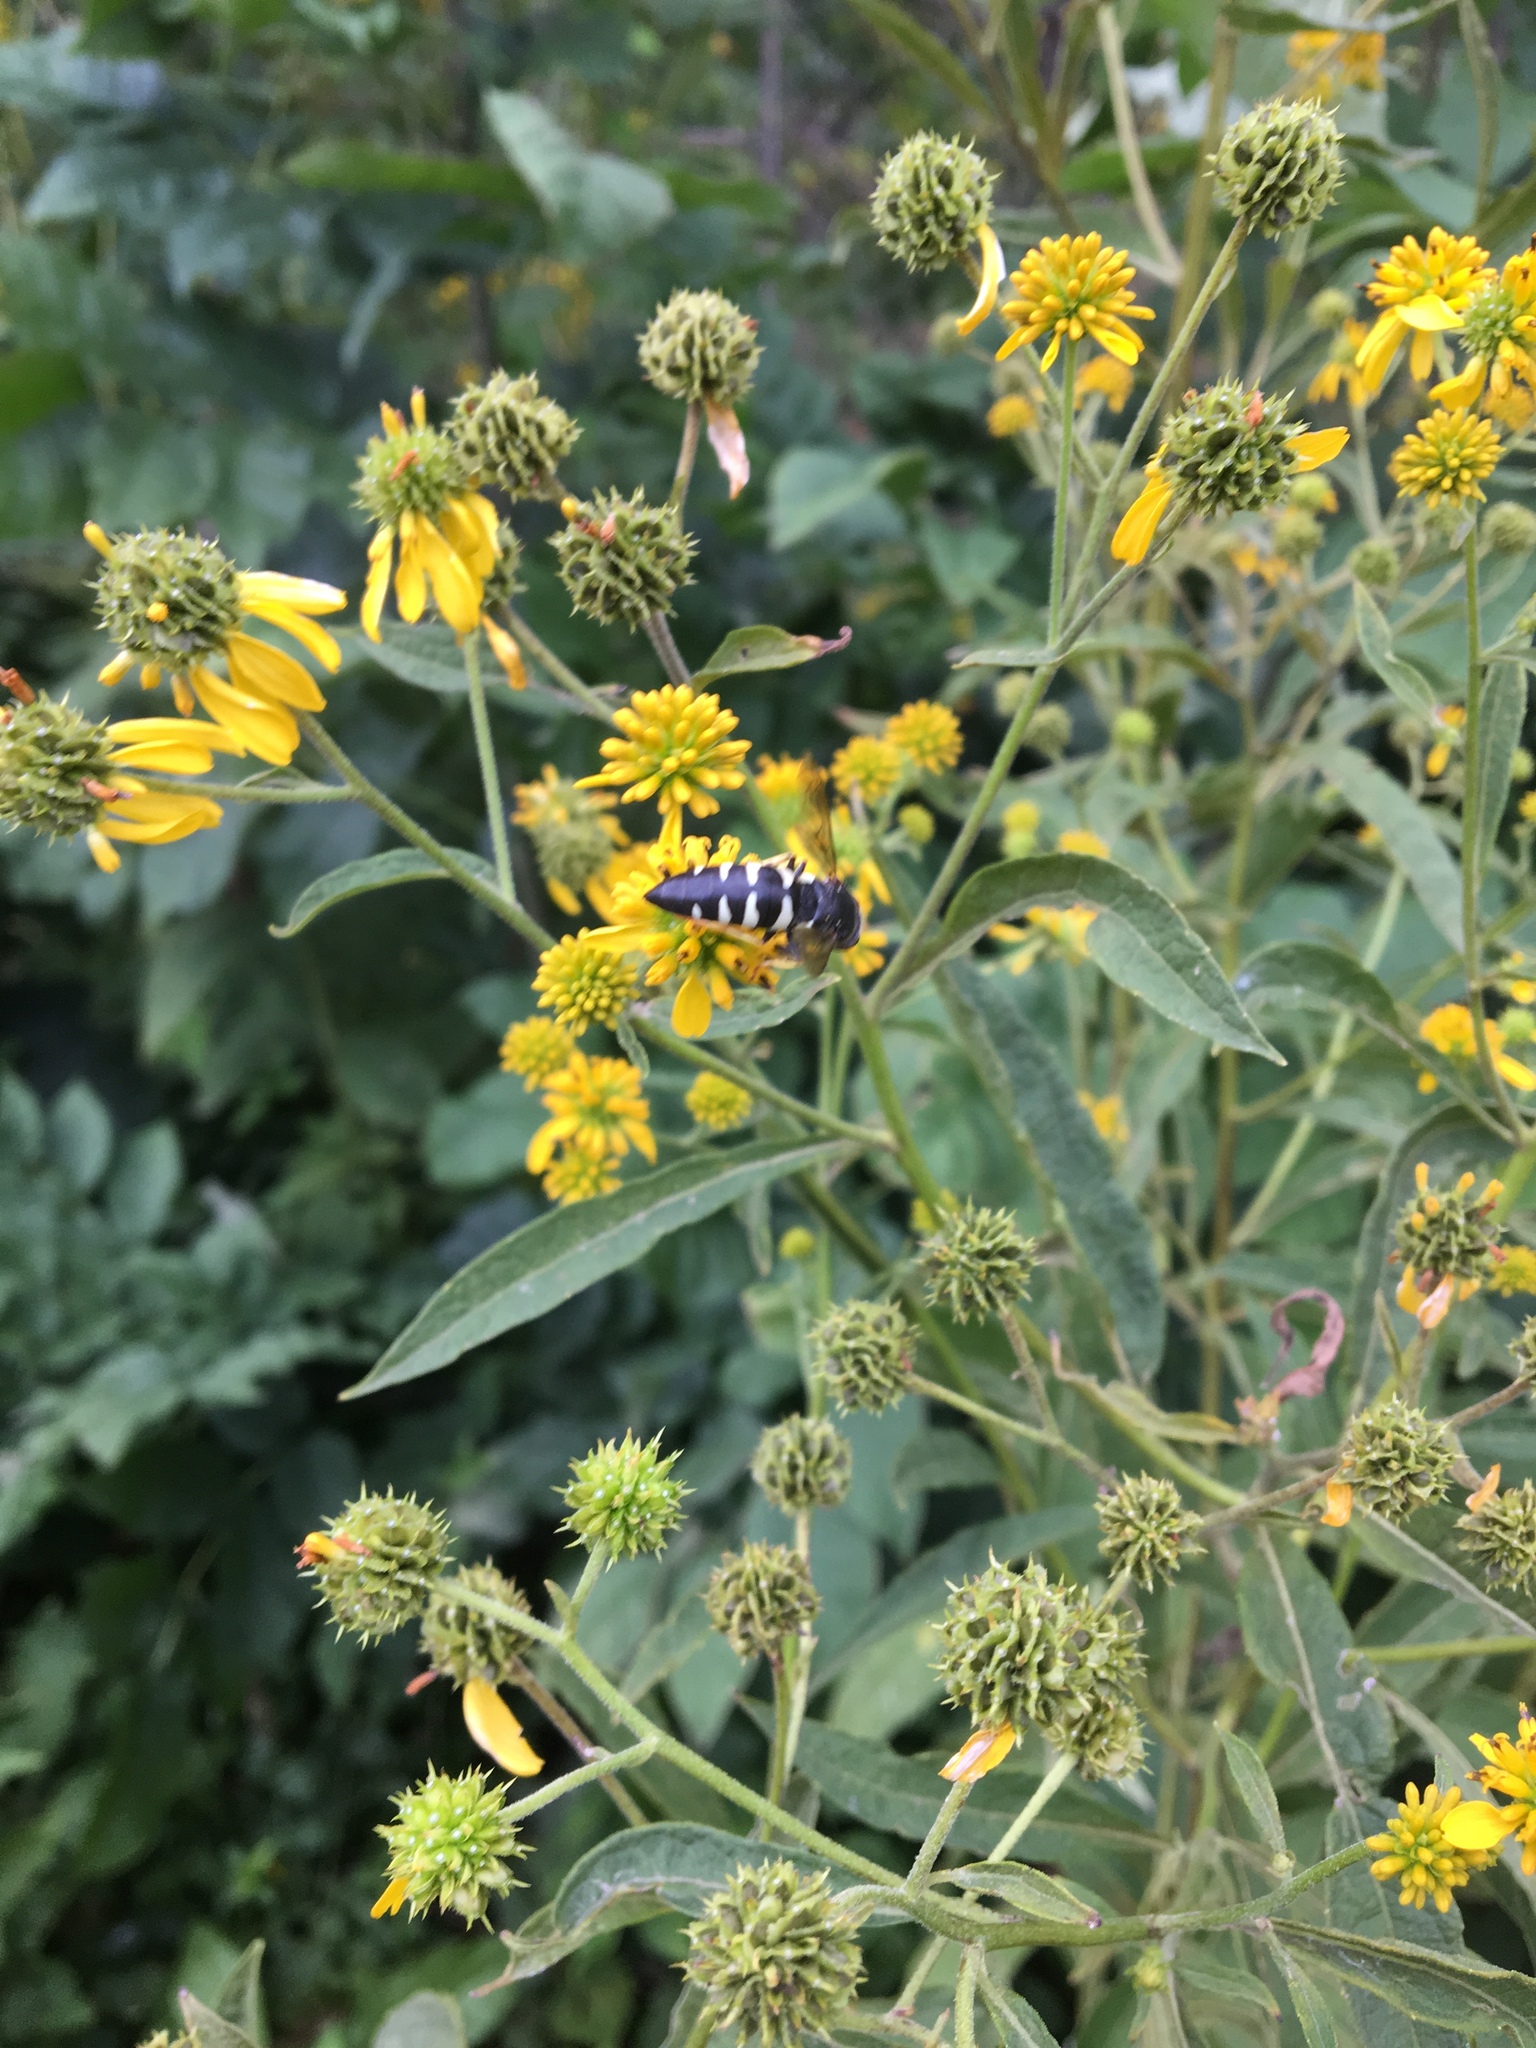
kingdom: Animalia
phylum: Arthropoda
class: Insecta
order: Hymenoptera
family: Crabronidae
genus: Bicyrtes
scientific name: Bicyrtes quadrifasciatus
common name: Four-banded stink bug hunter wasp
